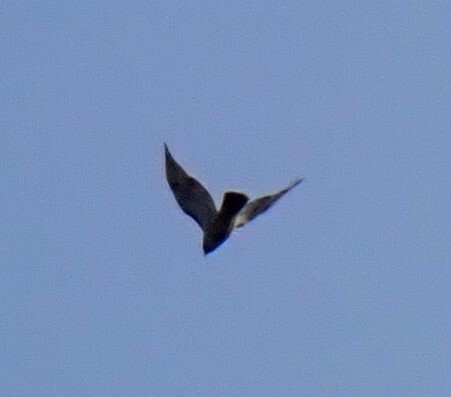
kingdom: Animalia
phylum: Chordata
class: Aves
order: Accipitriformes
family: Accipitridae
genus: Buteo
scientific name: Buteo jamaicensis
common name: Red-tailed hawk
